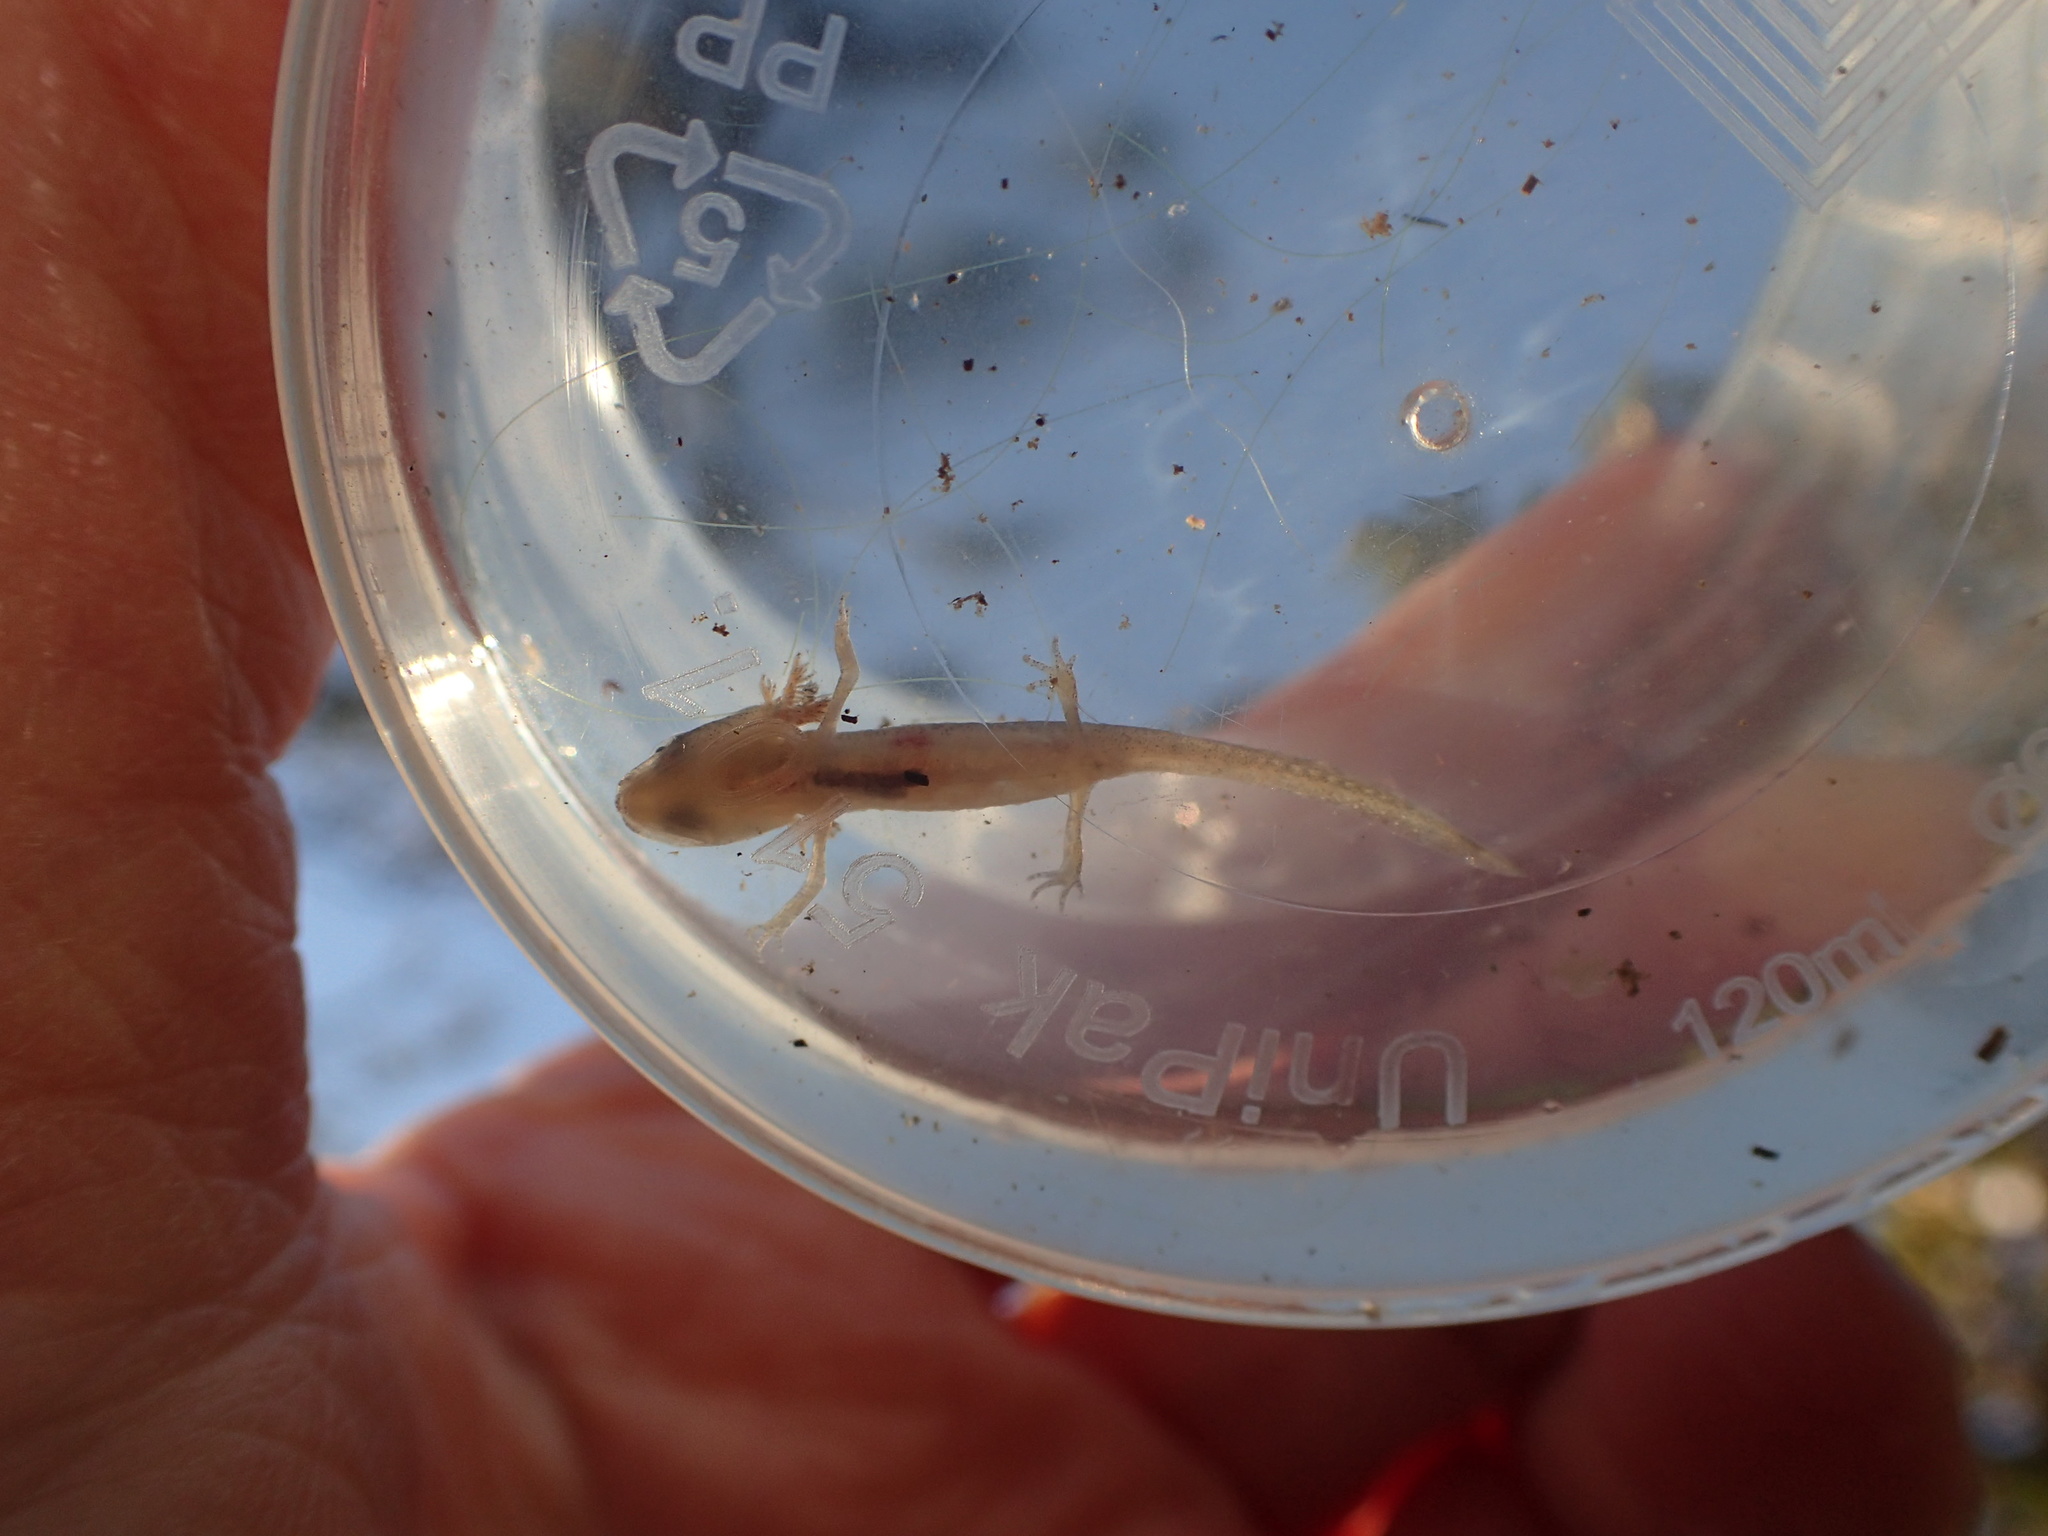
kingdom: Animalia
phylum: Chordata
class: Amphibia
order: Caudata
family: Salamandridae
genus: Lissotriton
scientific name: Lissotriton
